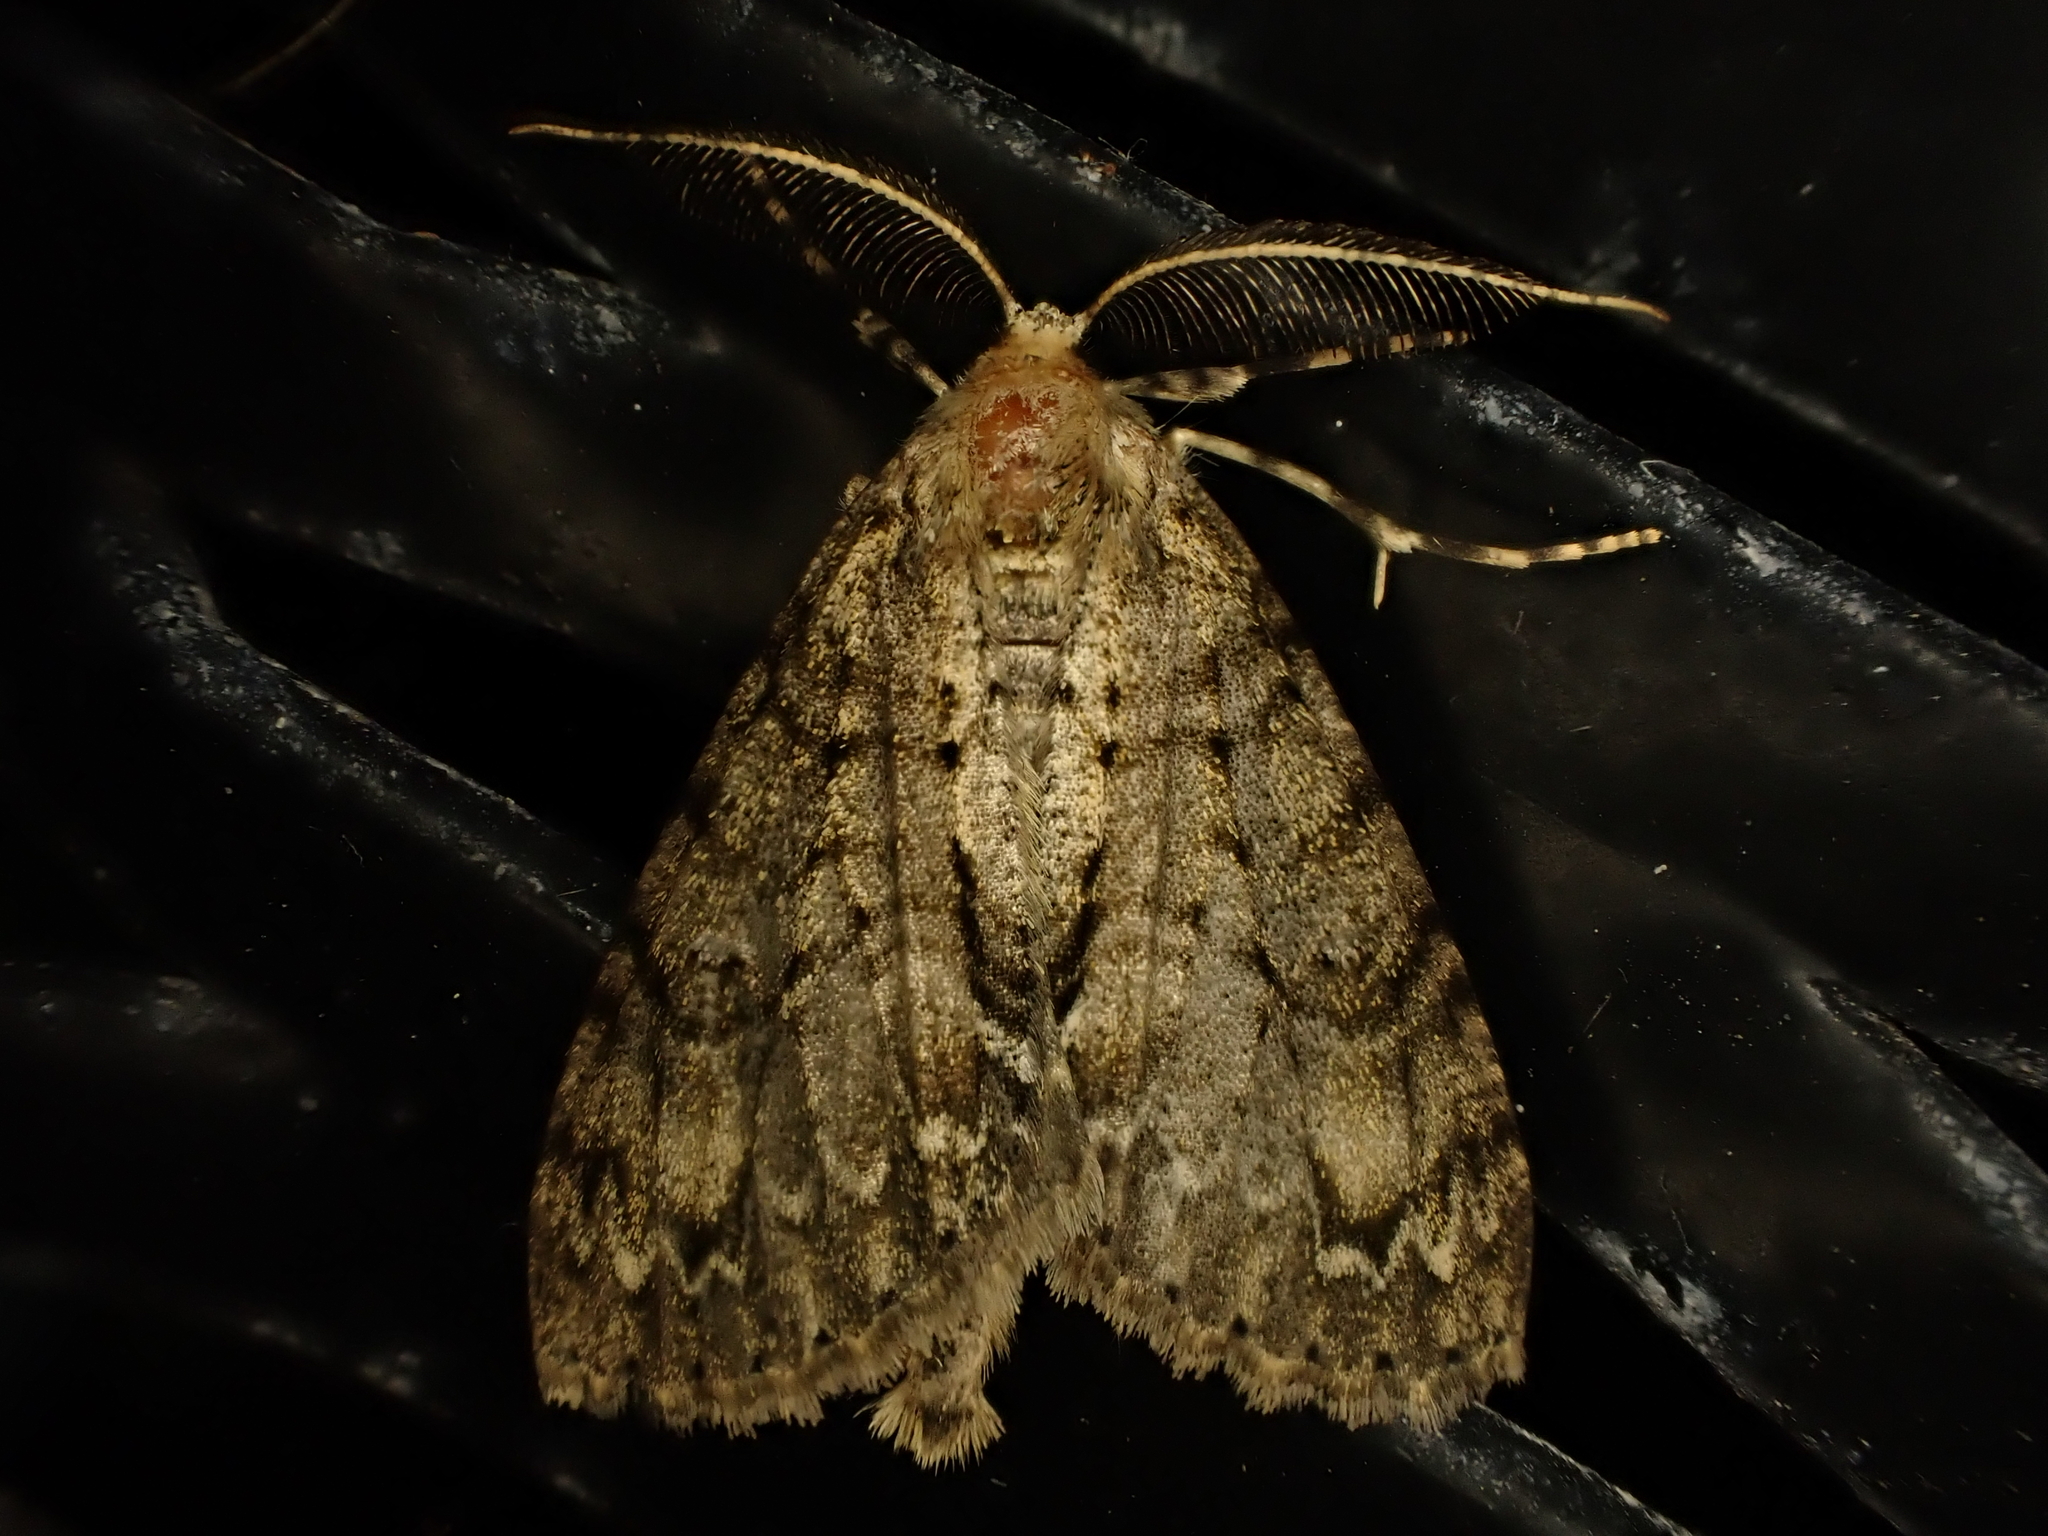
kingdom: Animalia
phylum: Arthropoda
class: Insecta
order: Lepidoptera
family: Geometridae
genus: Pseudocoremia
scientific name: Pseudocoremia suavis
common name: Common forest looper
